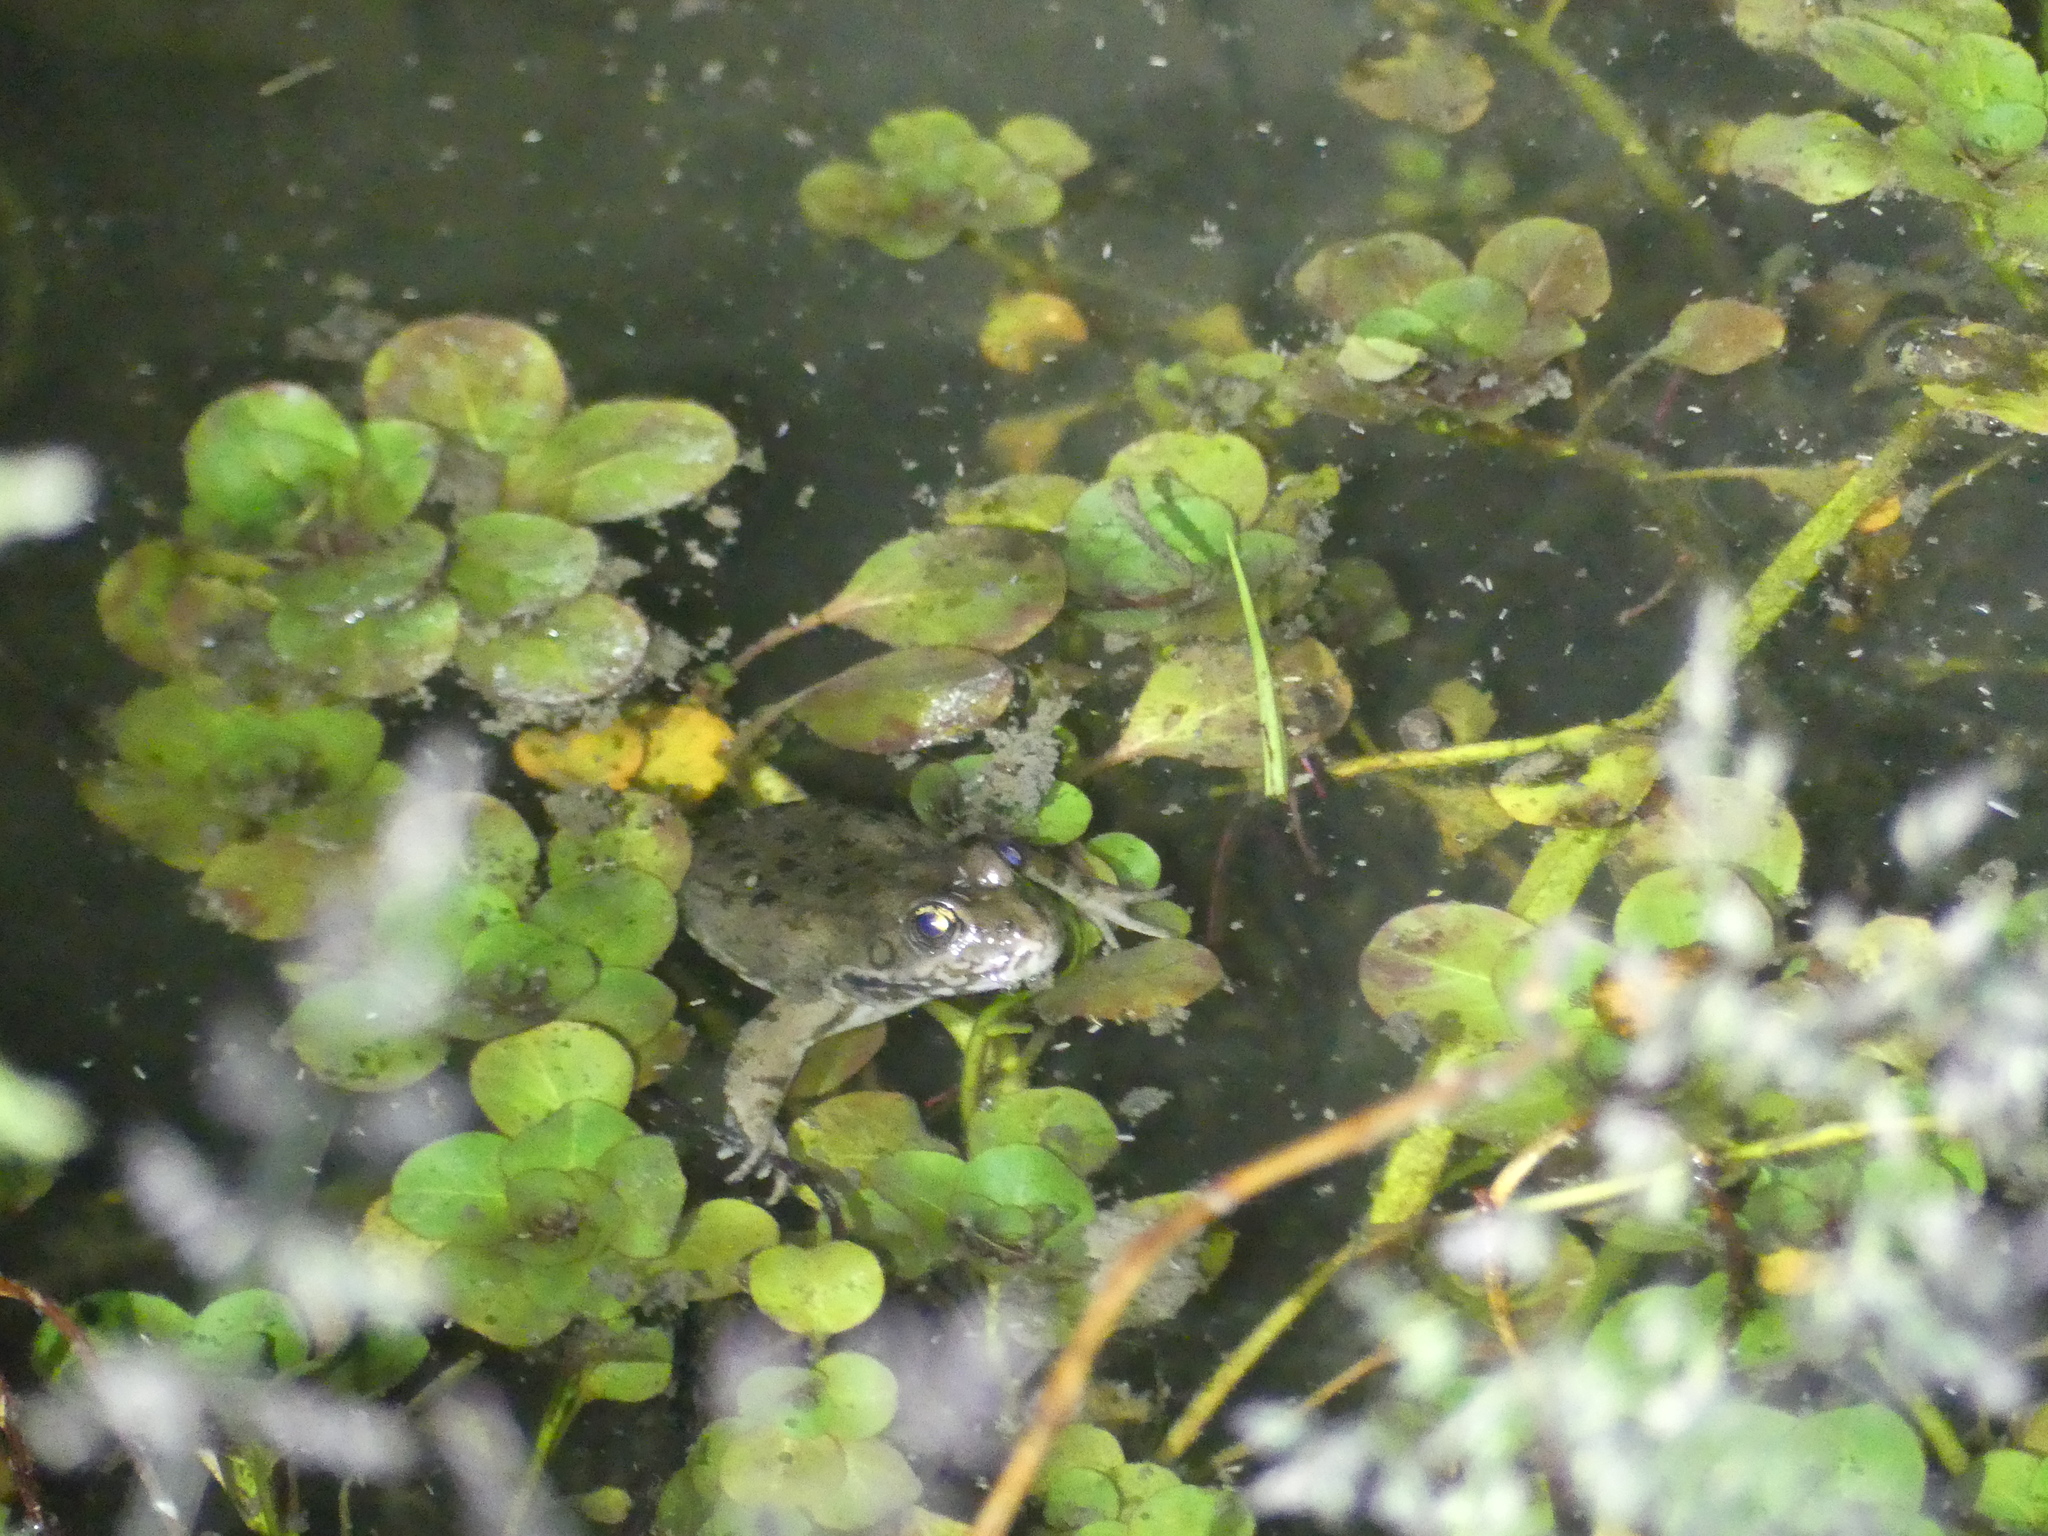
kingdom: Animalia
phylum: Chordata
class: Amphibia
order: Anura
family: Ranidae
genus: Pelophylax
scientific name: Pelophylax
